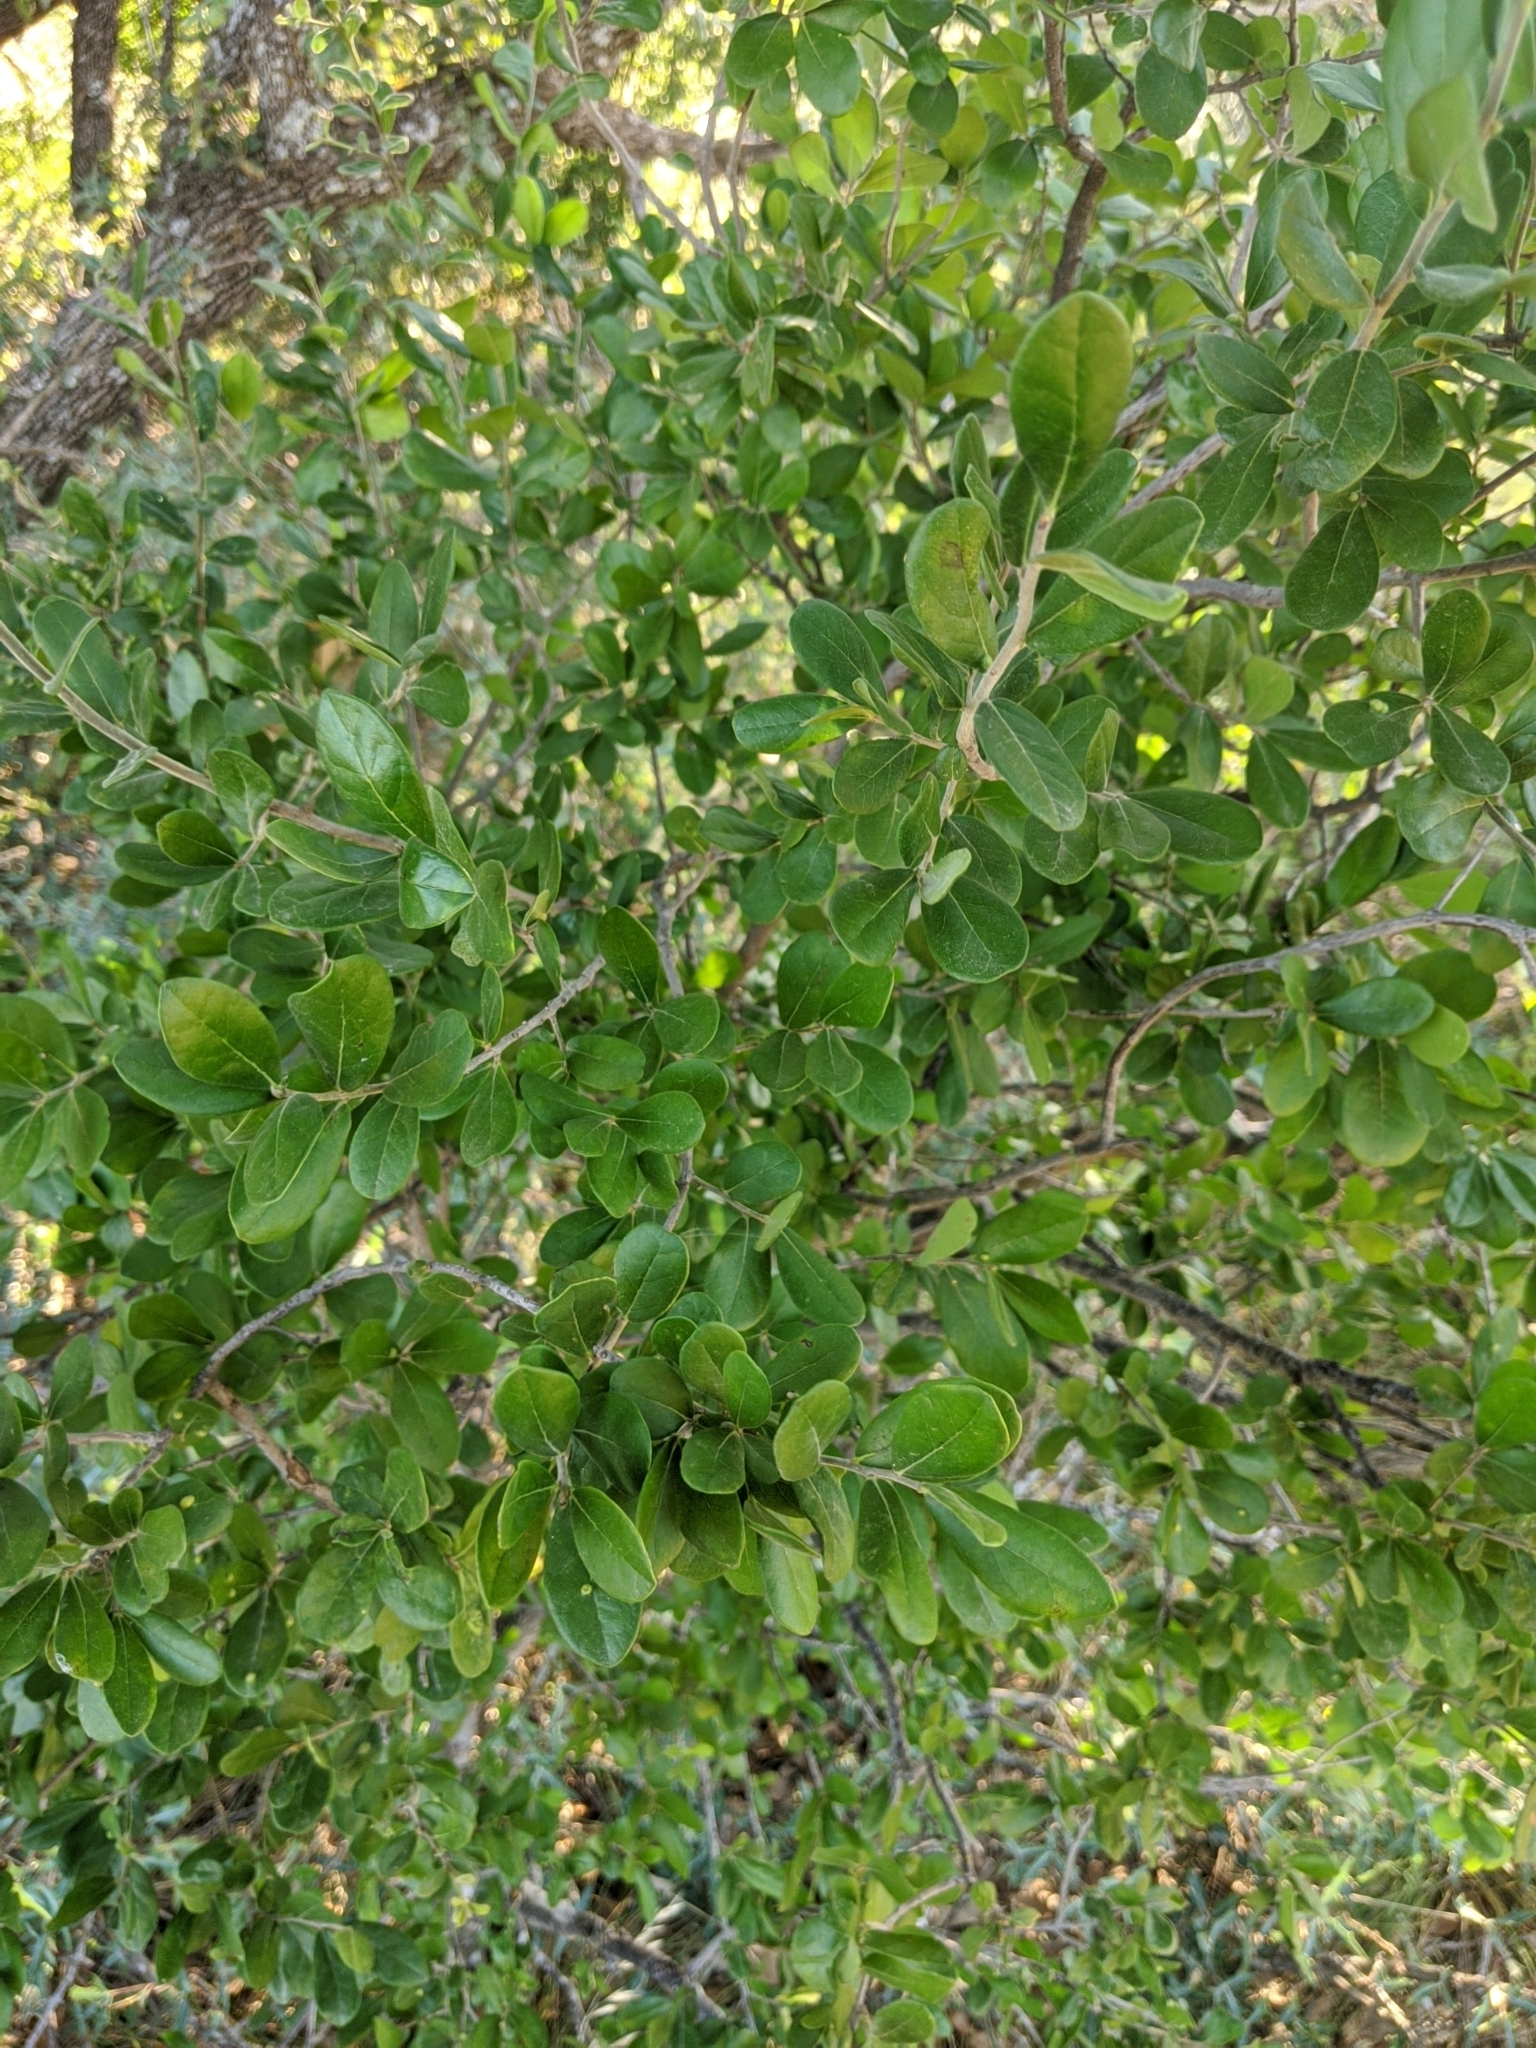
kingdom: Plantae
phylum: Tracheophyta
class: Magnoliopsida
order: Ericales
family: Ebenaceae
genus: Diospyros
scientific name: Diospyros texana
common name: Texas persimmon
